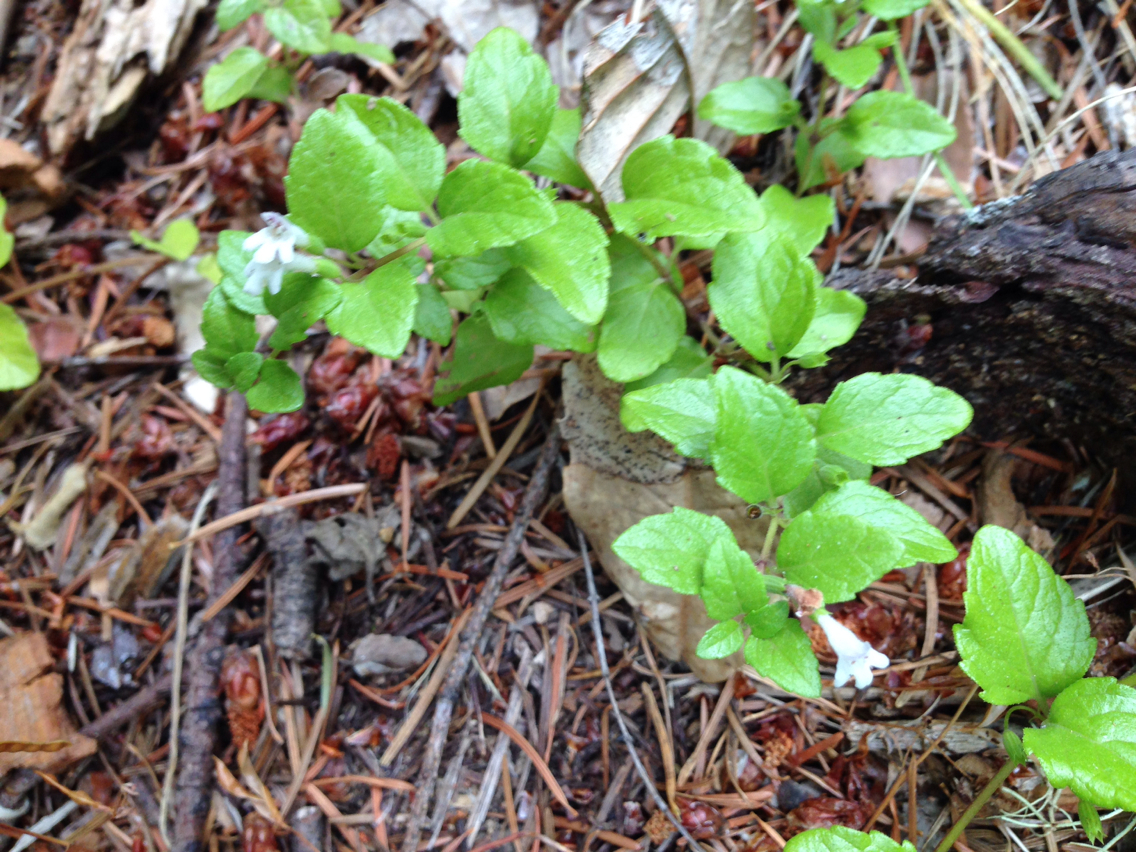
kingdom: Plantae
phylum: Tracheophyta
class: Magnoliopsida
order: Lamiales
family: Lamiaceae
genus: Micromeria
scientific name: Micromeria douglasii
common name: Yerba buena
